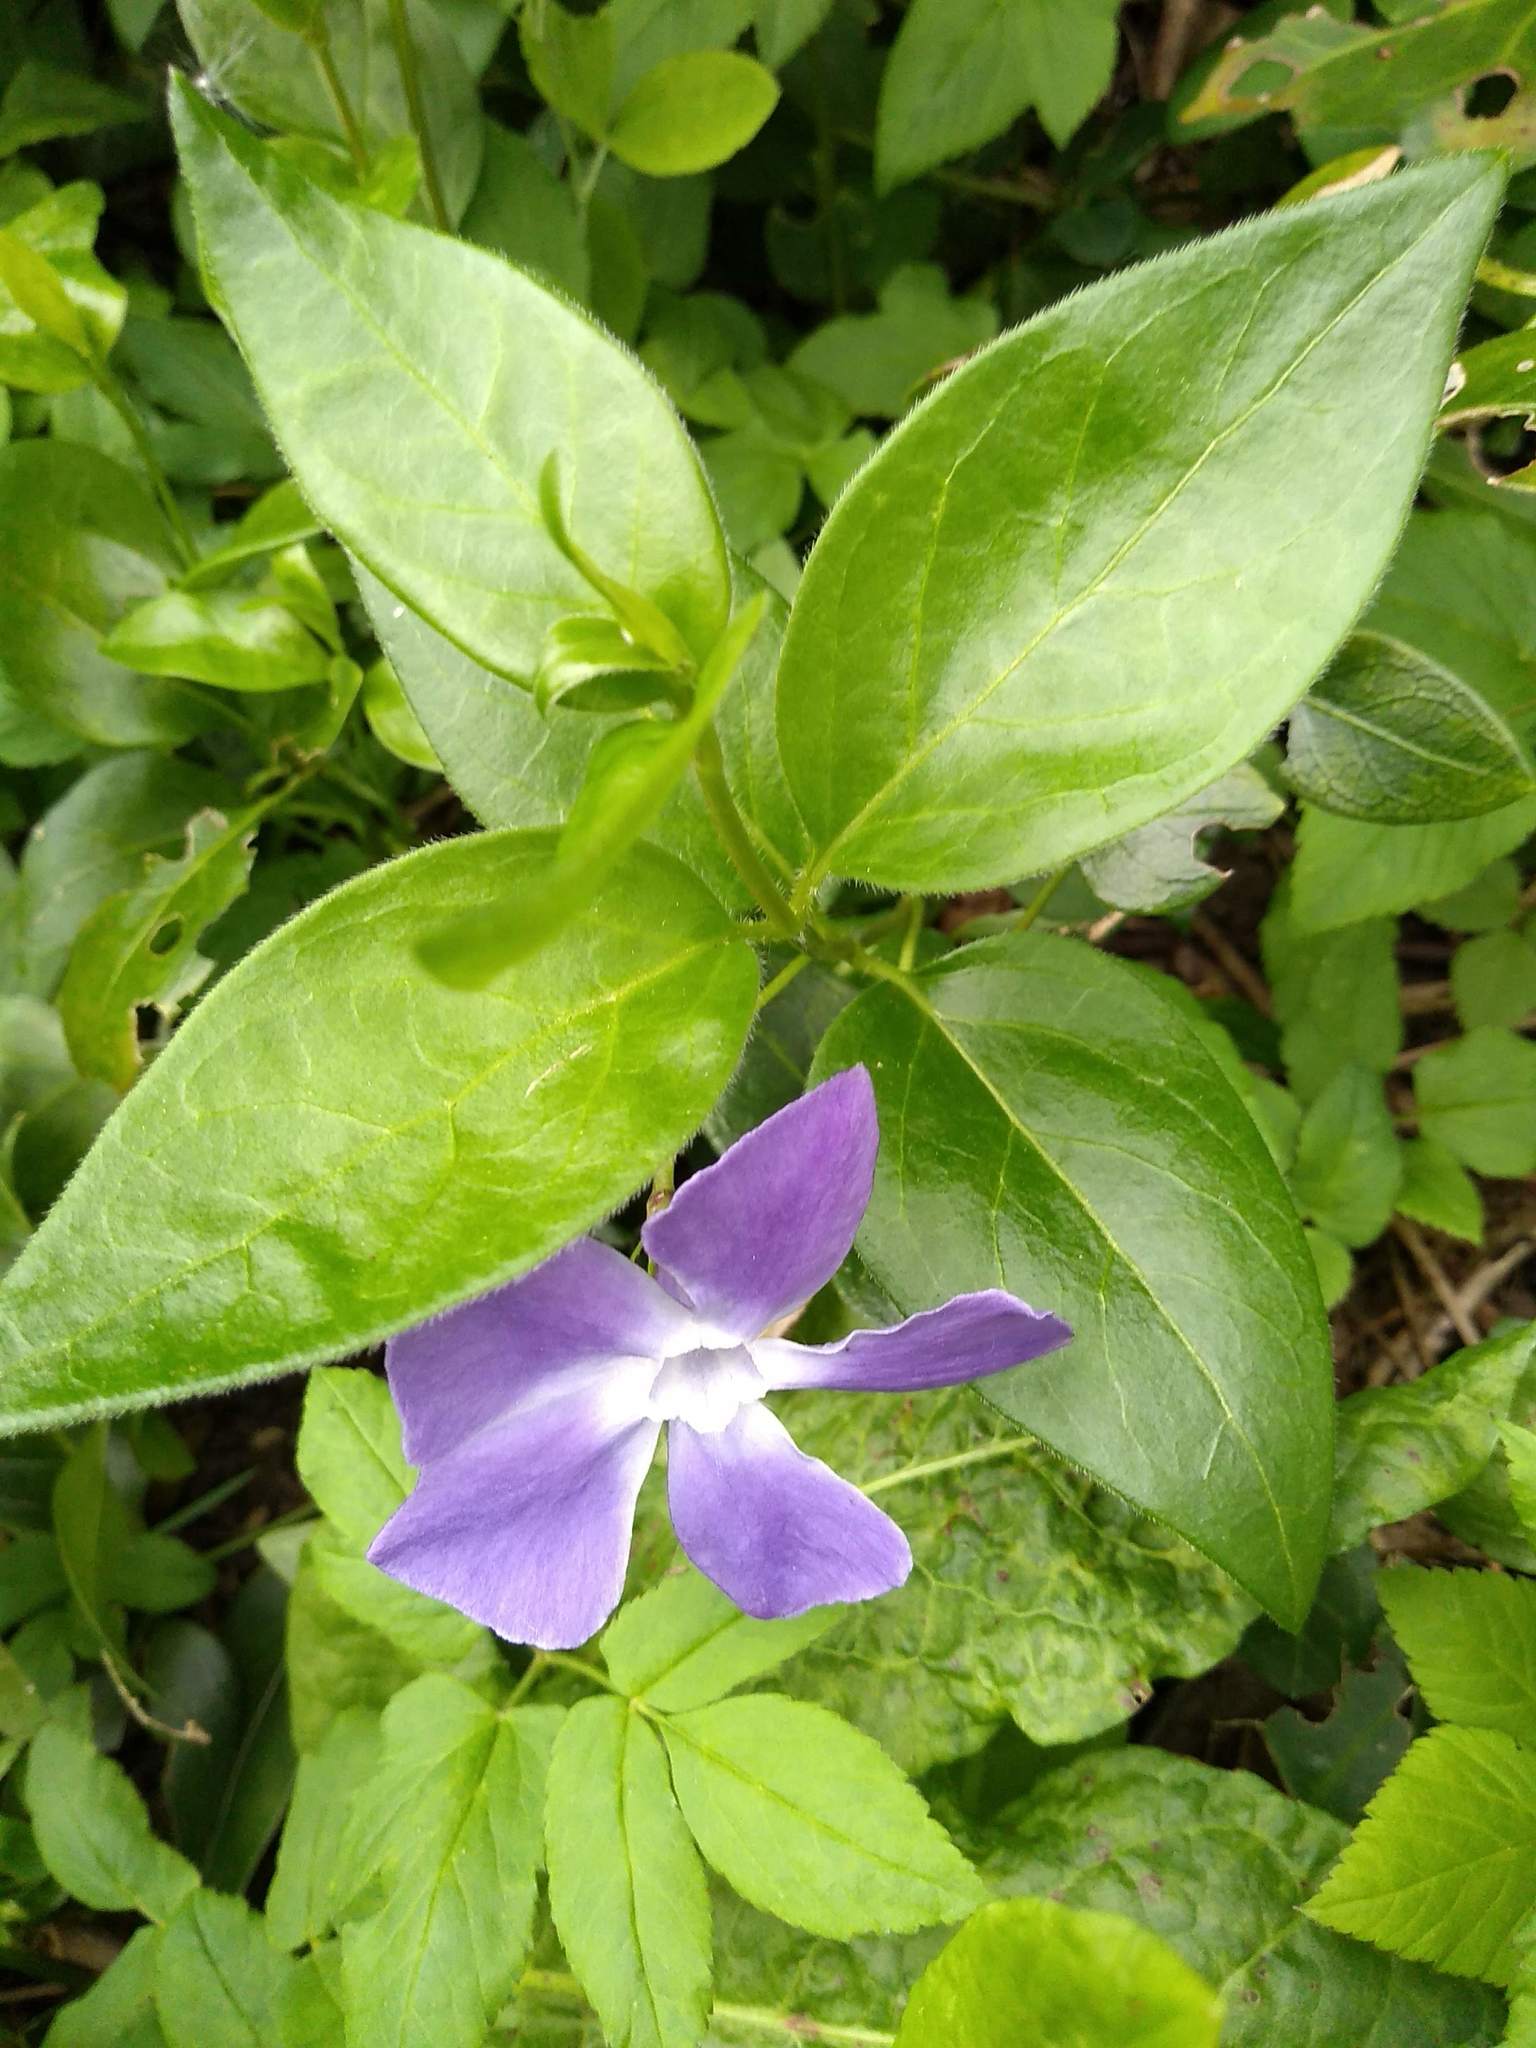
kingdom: Plantae
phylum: Tracheophyta
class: Magnoliopsida
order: Gentianales
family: Apocynaceae
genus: Vinca
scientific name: Vinca major
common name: Greater periwinkle
